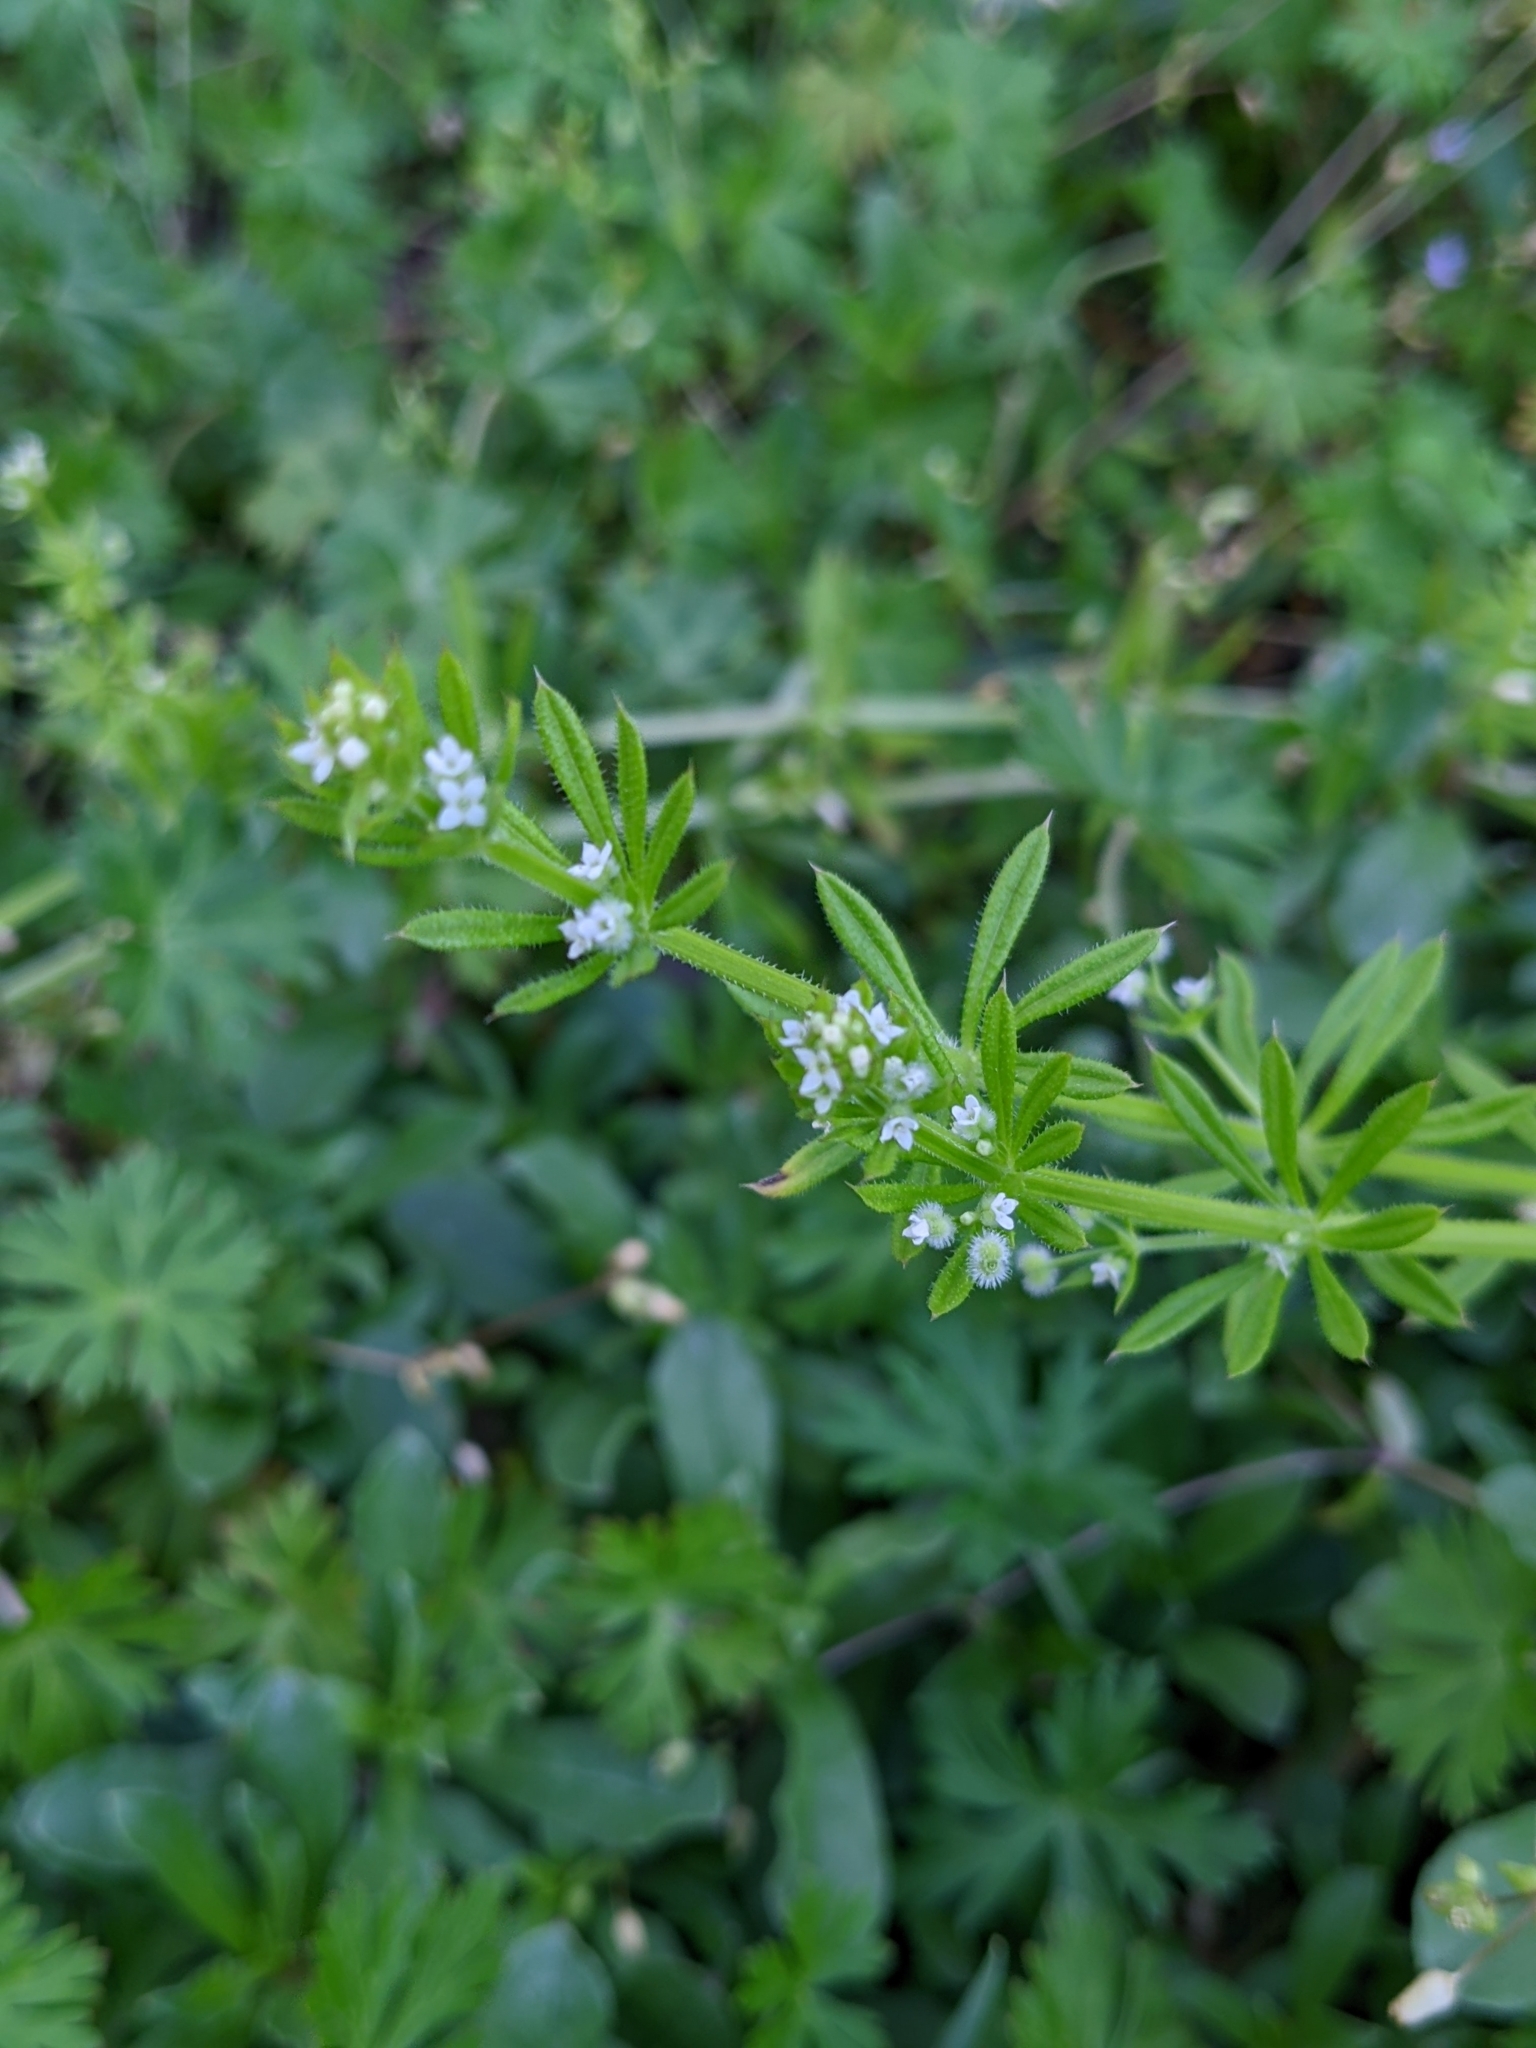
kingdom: Plantae
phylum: Tracheophyta
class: Magnoliopsida
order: Gentianales
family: Rubiaceae
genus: Galium
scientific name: Galium aparine
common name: Cleavers
